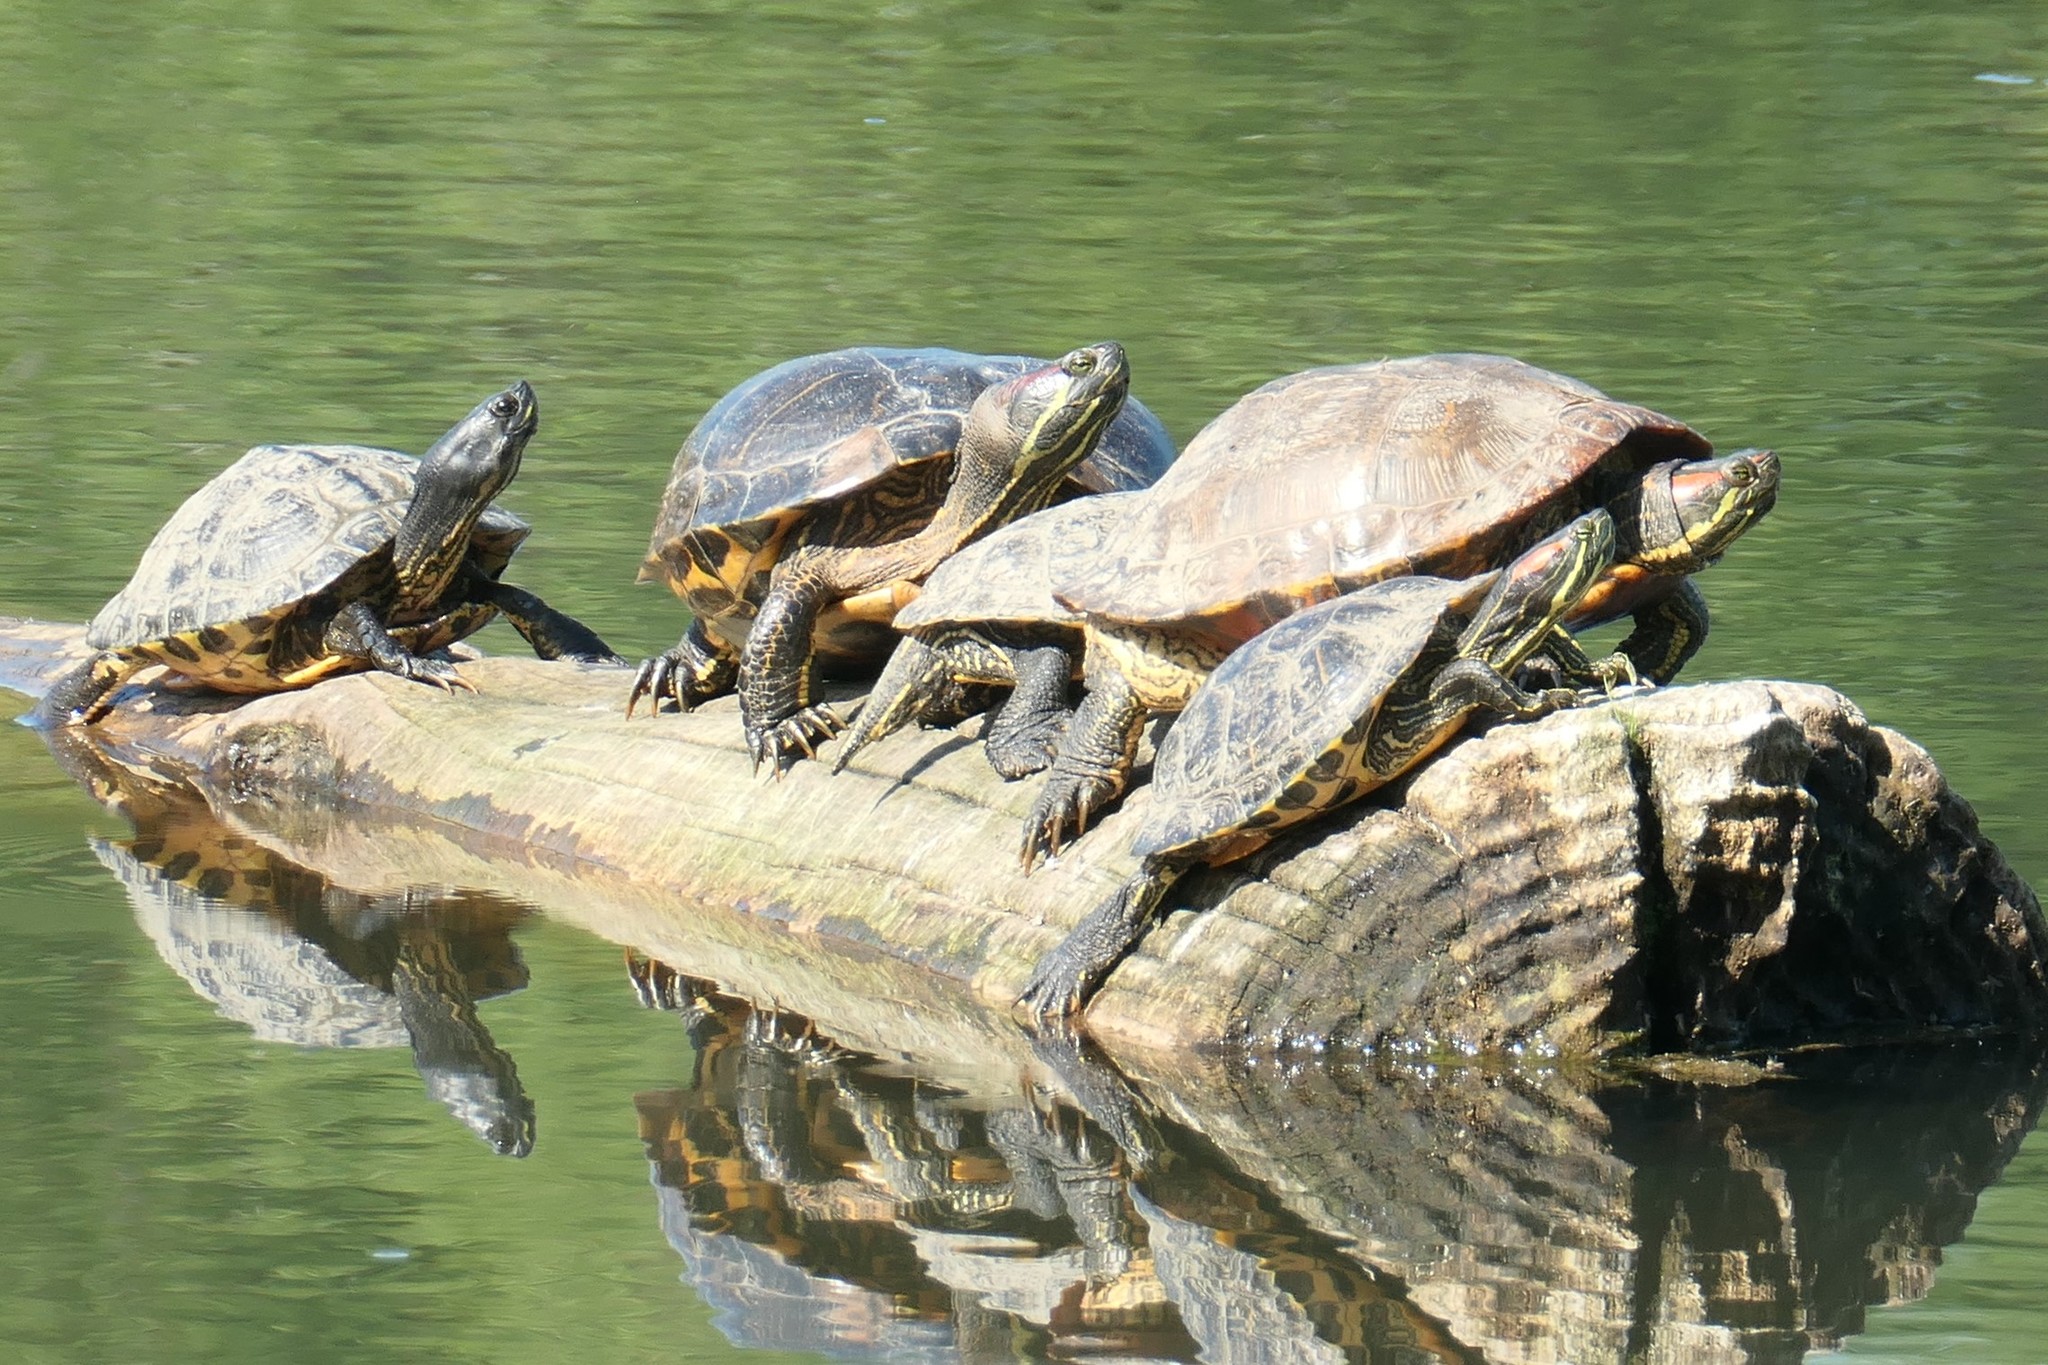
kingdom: Animalia
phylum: Chordata
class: Testudines
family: Emydidae
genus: Trachemys
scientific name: Trachemys scripta
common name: Slider
